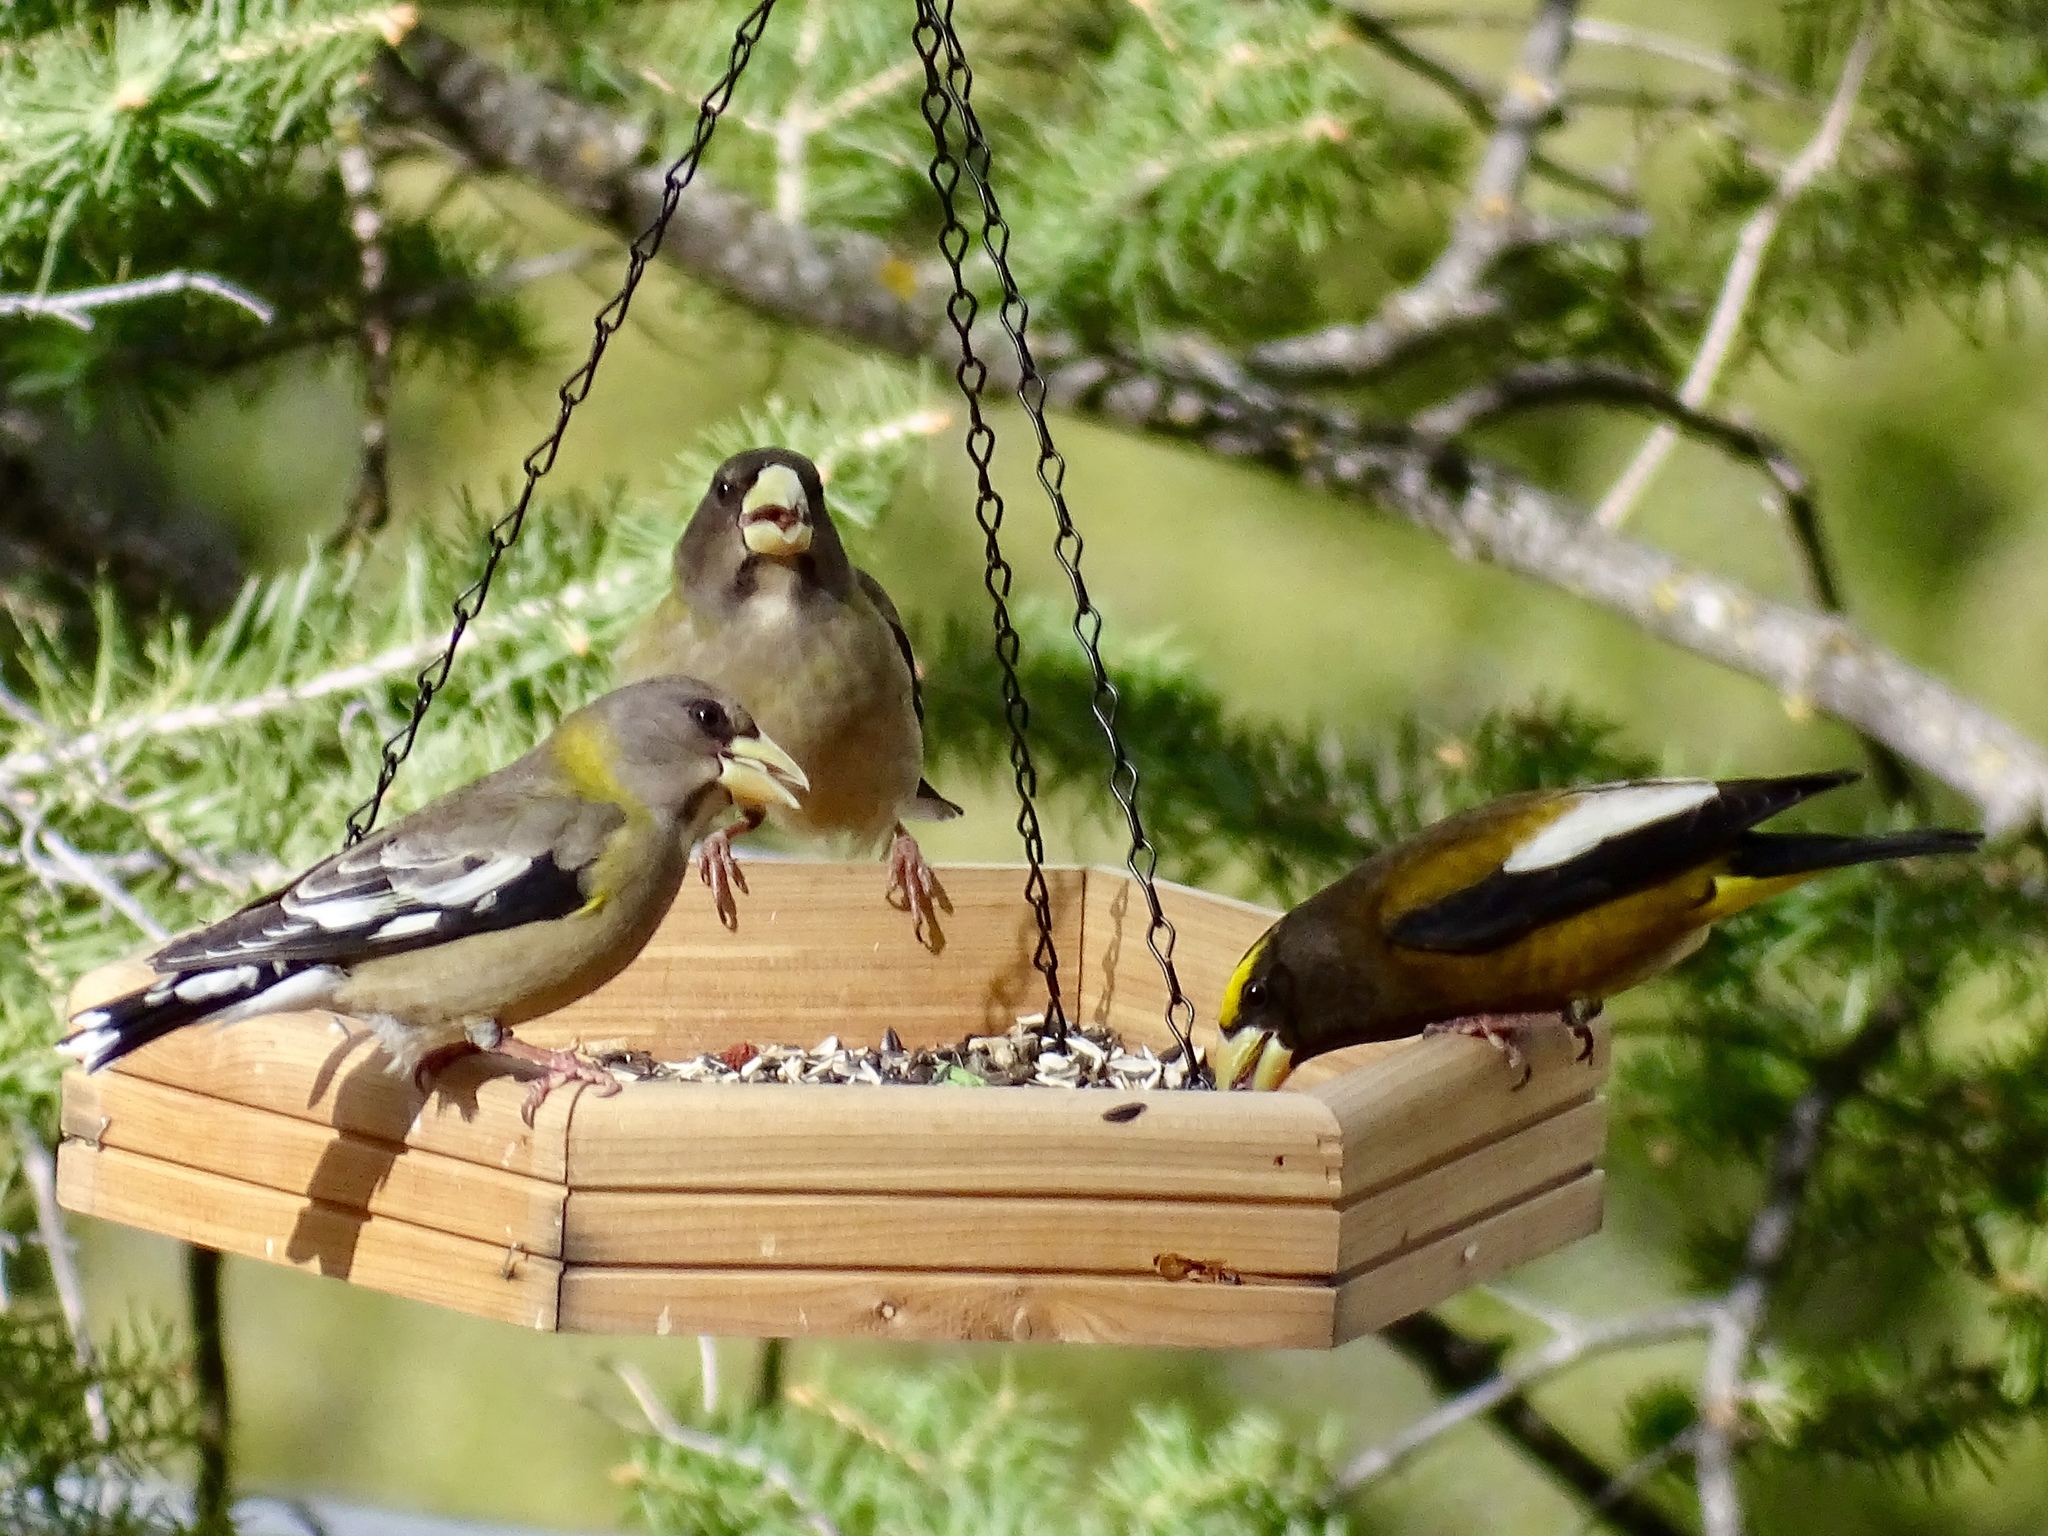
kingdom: Animalia
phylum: Chordata
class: Aves
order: Passeriformes
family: Fringillidae
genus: Hesperiphona
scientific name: Hesperiphona vespertina
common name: Evening grosbeak
